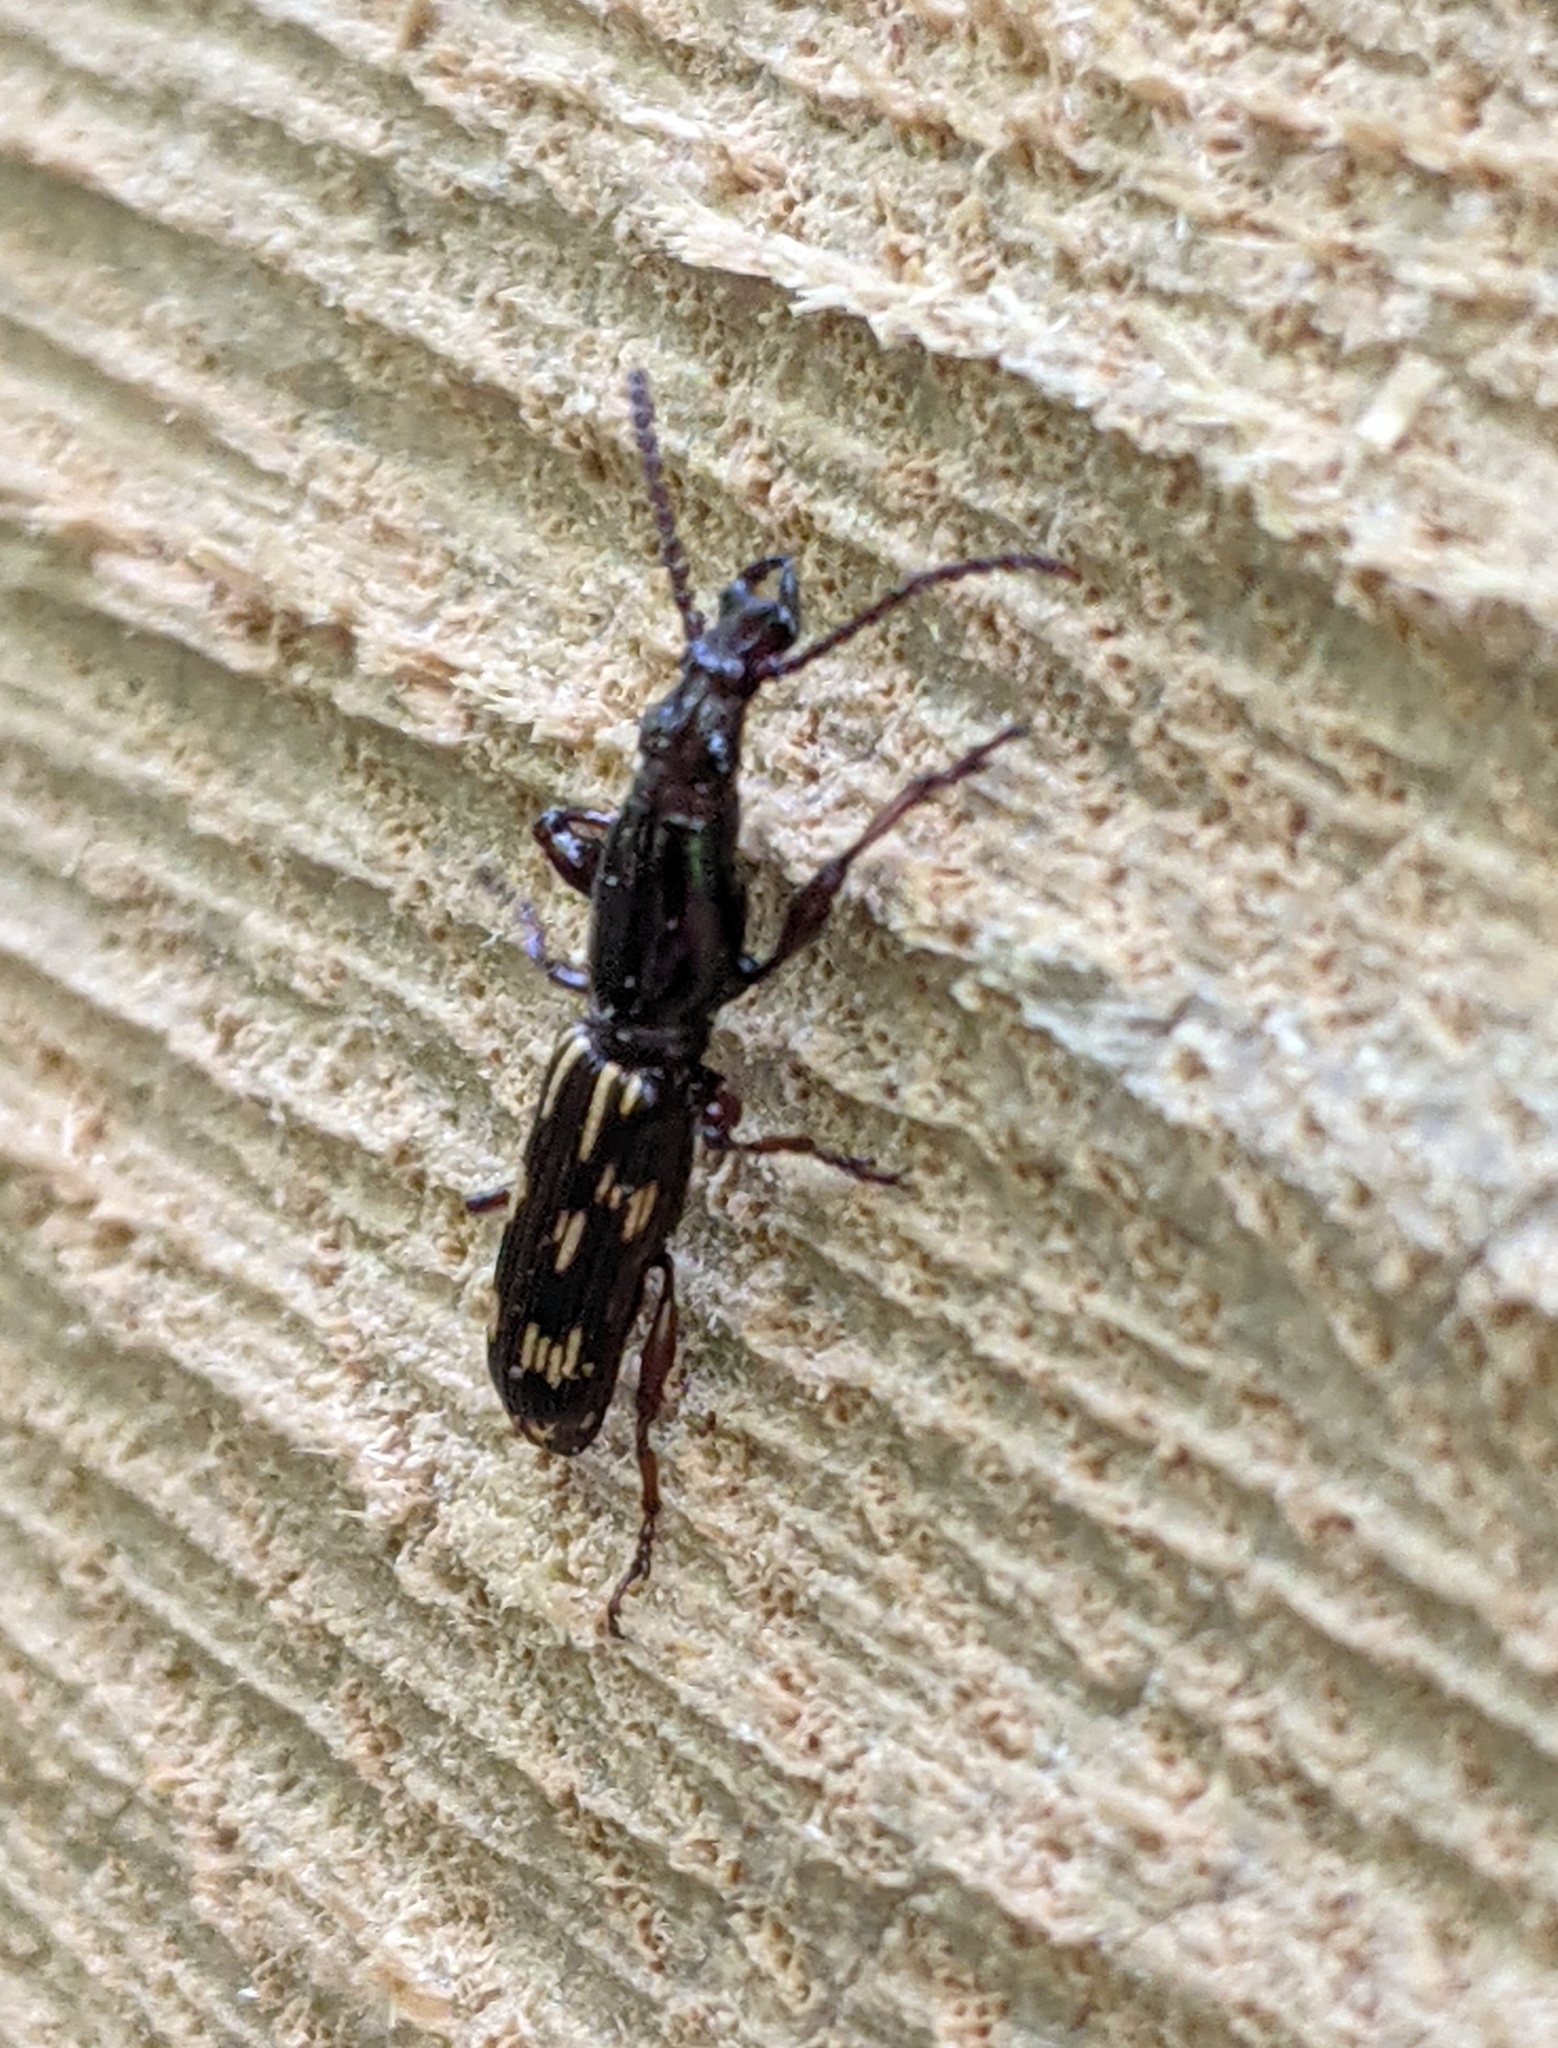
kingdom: Animalia
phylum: Arthropoda
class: Insecta
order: Coleoptera
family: Brentidae
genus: Arrenodes
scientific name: Arrenodes minutus
